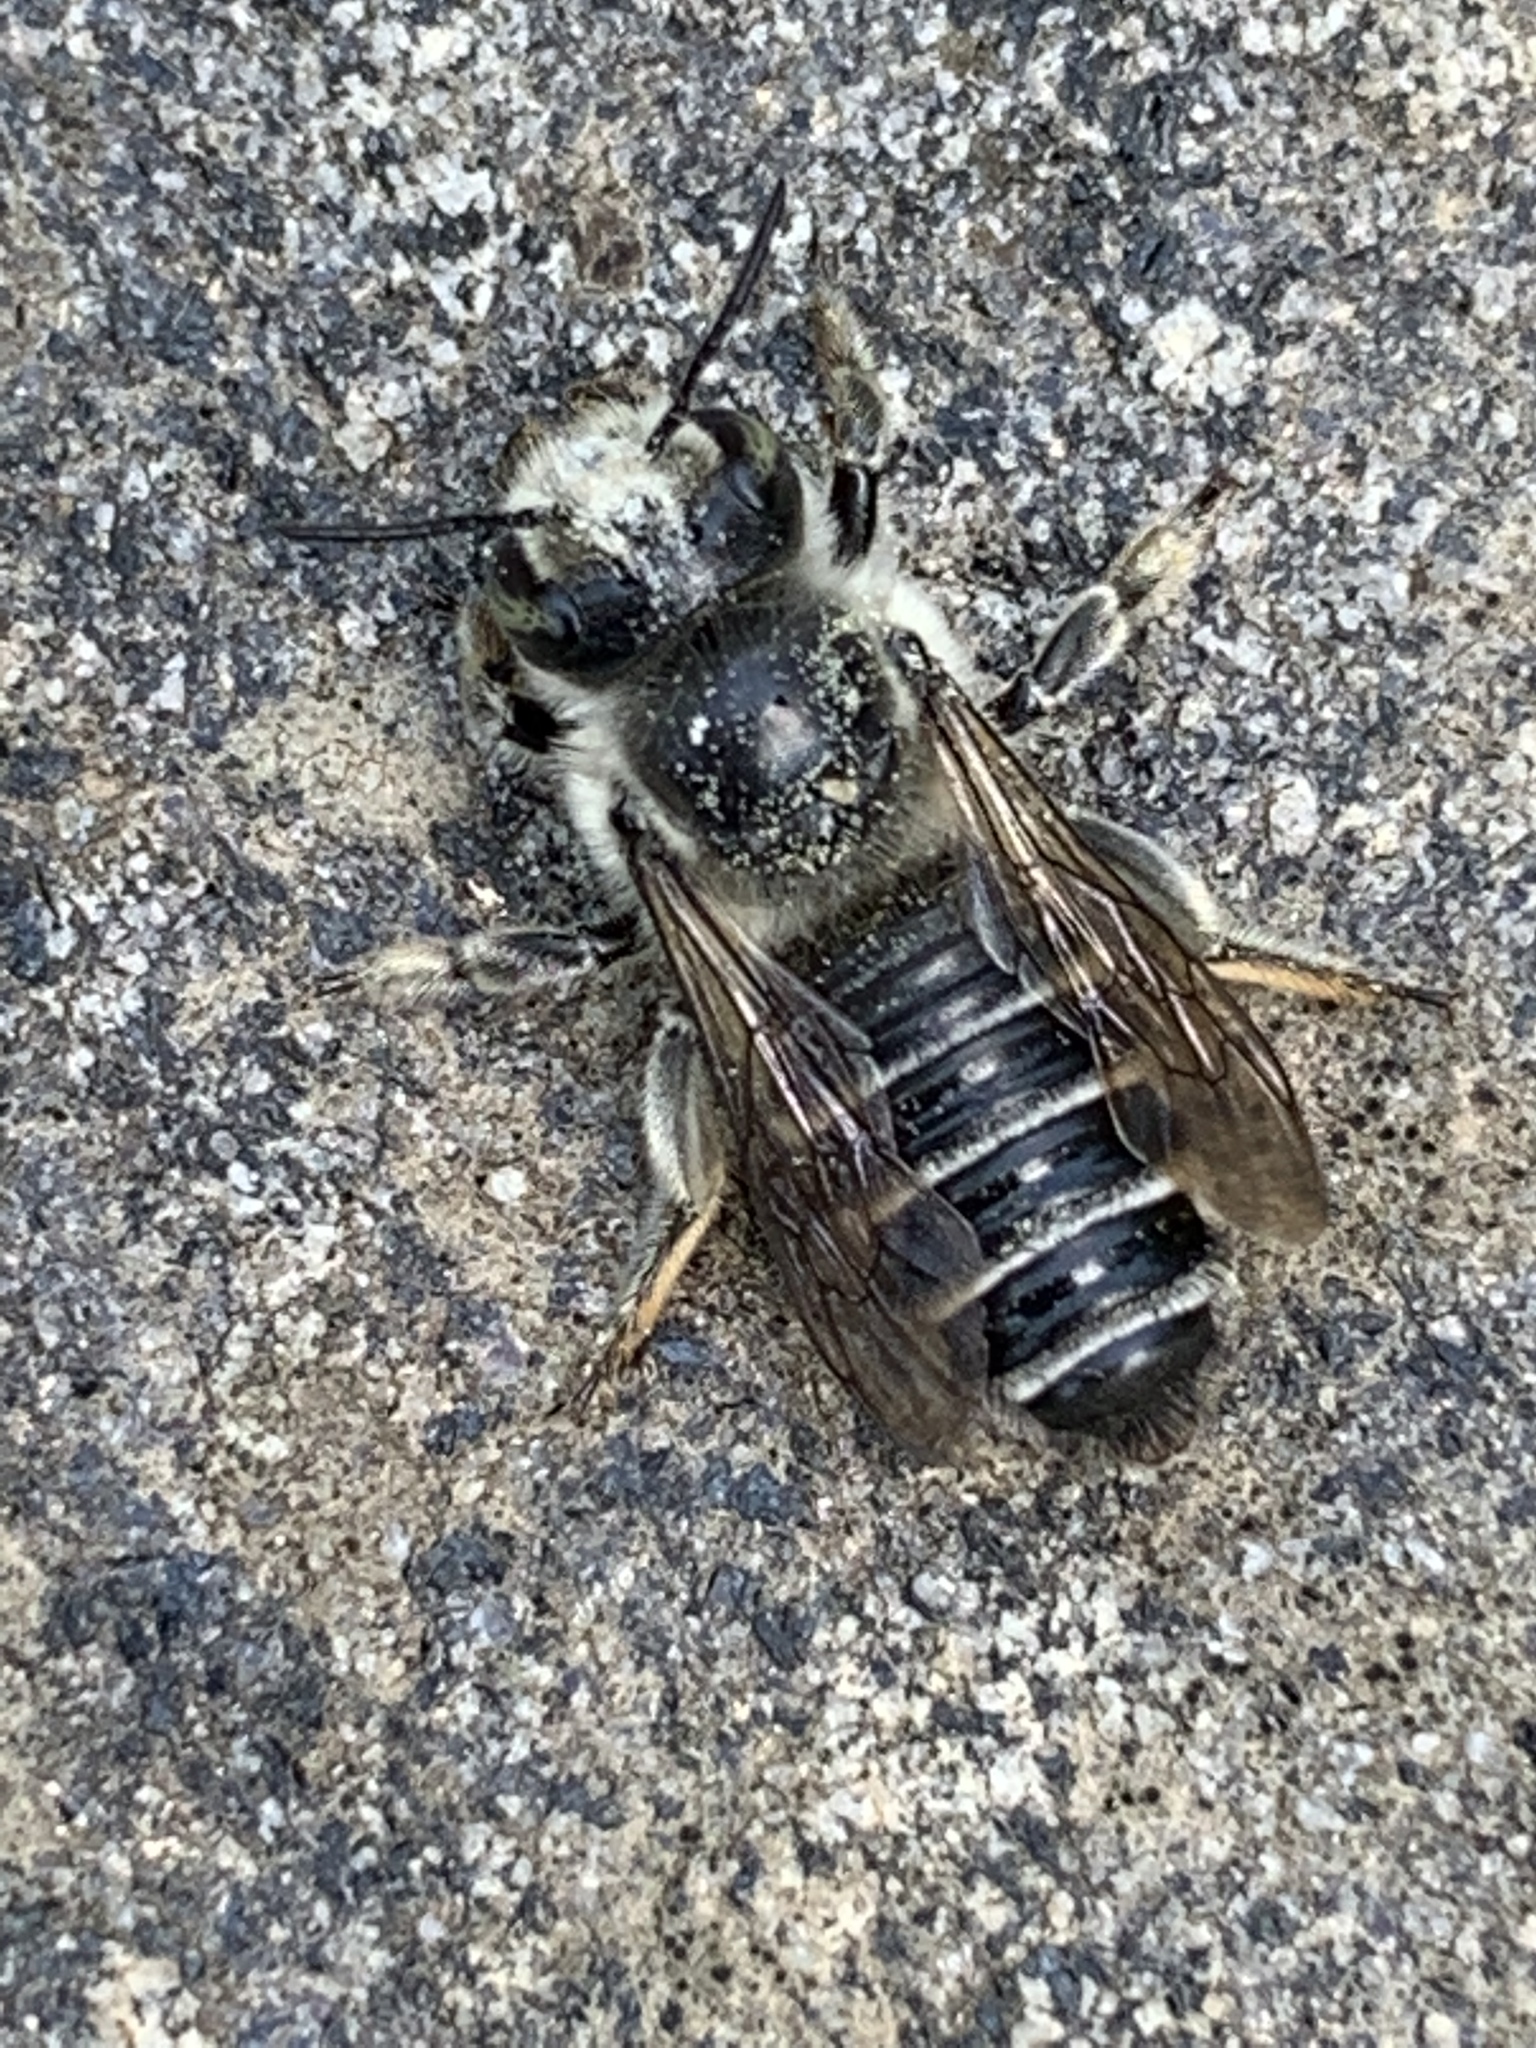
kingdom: Animalia
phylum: Arthropoda
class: Insecta
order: Hymenoptera
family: Megachilidae
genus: Megachile
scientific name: Megachile
